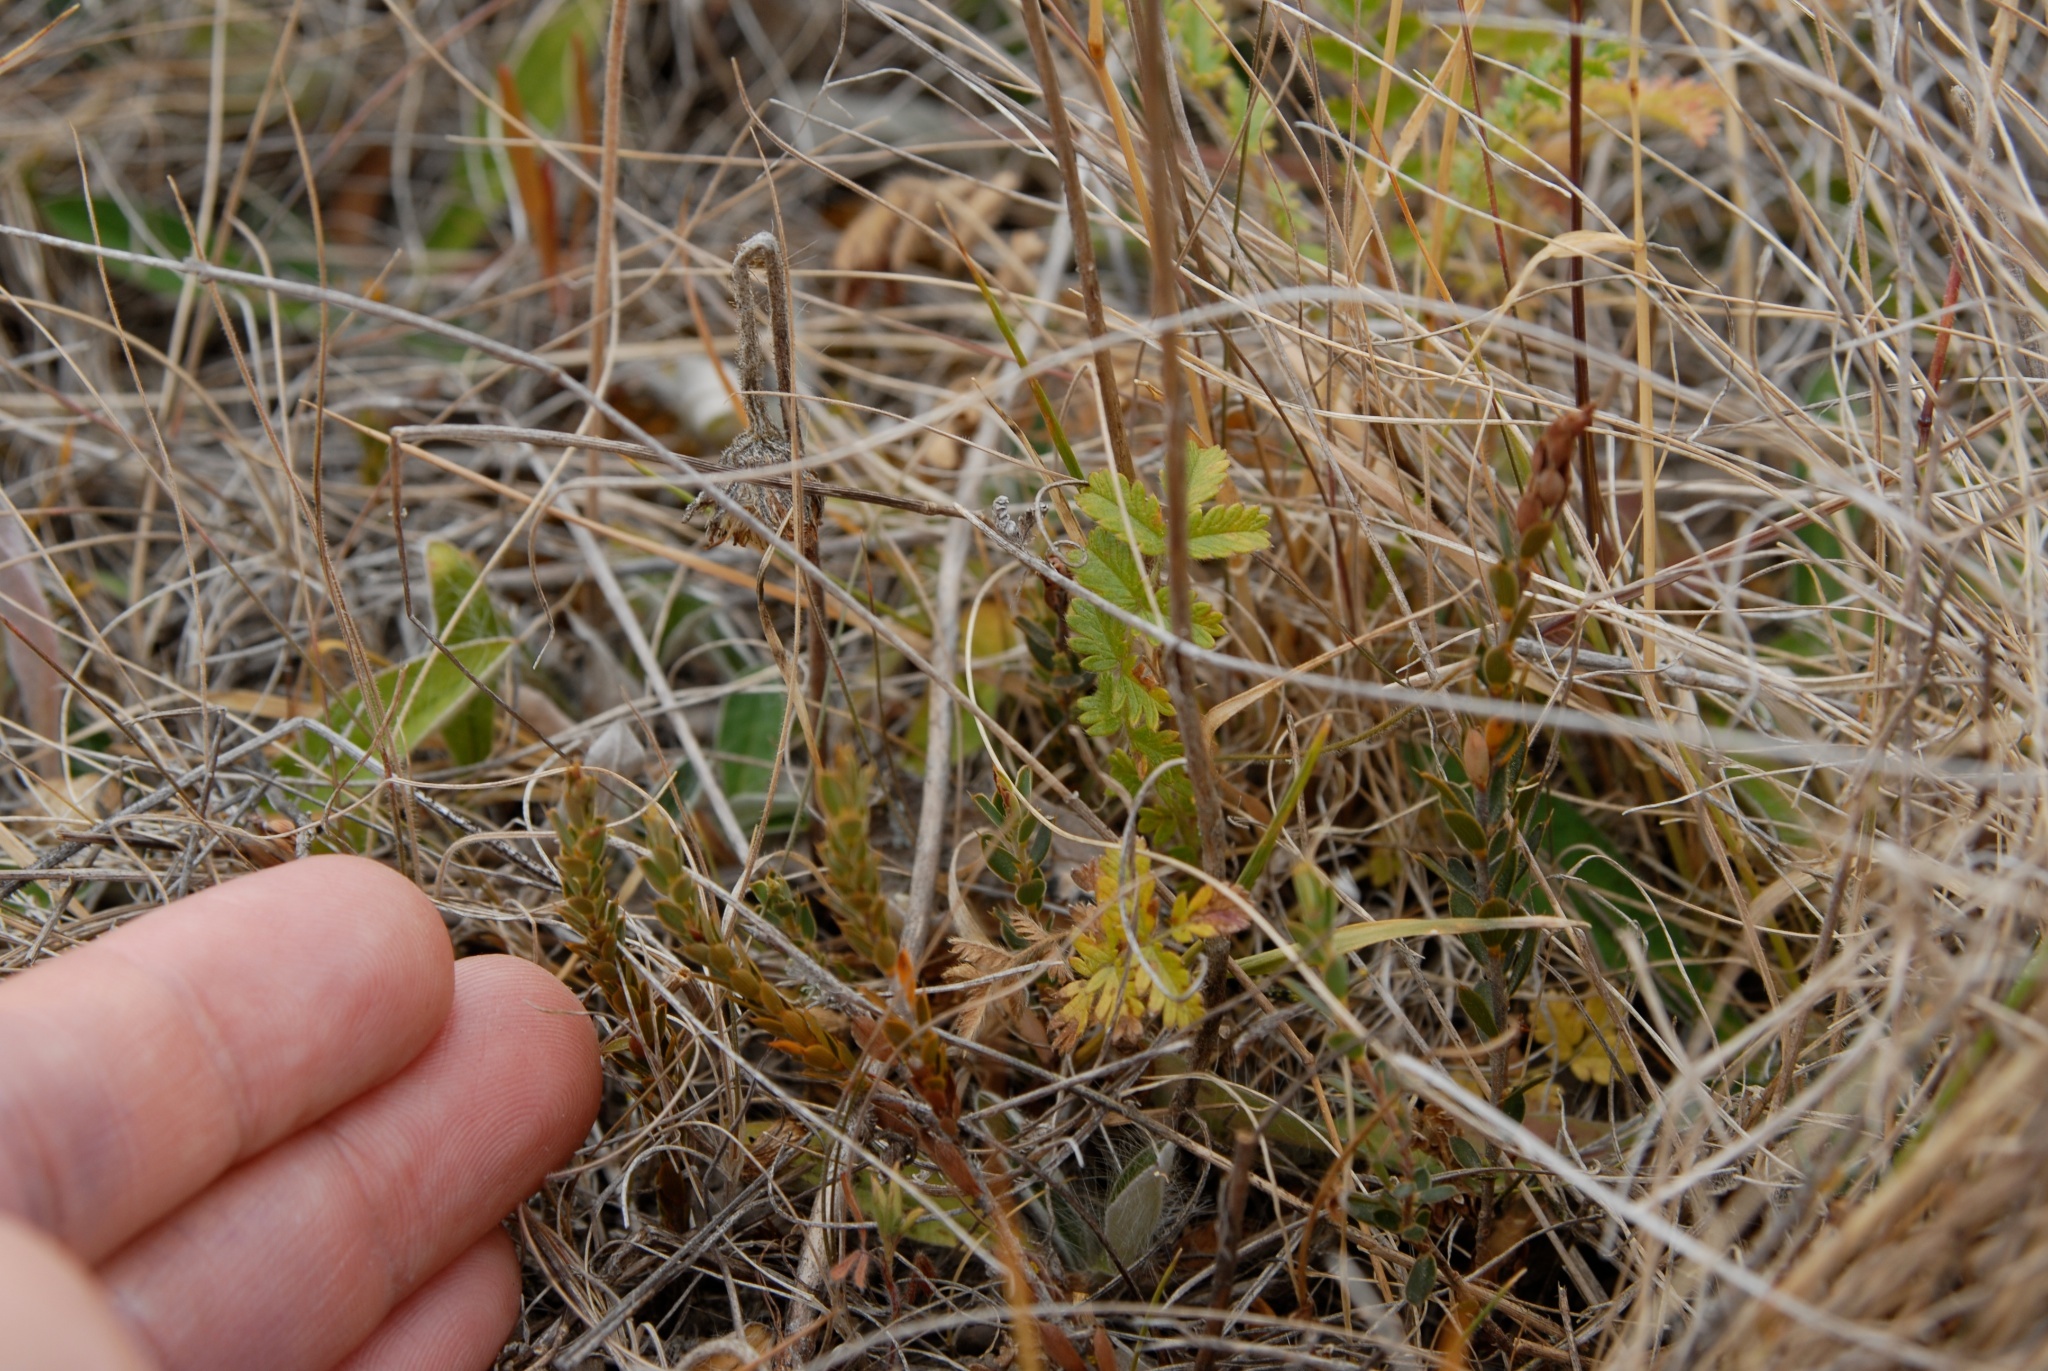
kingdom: Plantae
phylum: Tracheophyta
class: Magnoliopsida
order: Ericales
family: Ericaceae
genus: Styphelia
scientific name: Styphelia nesophila
